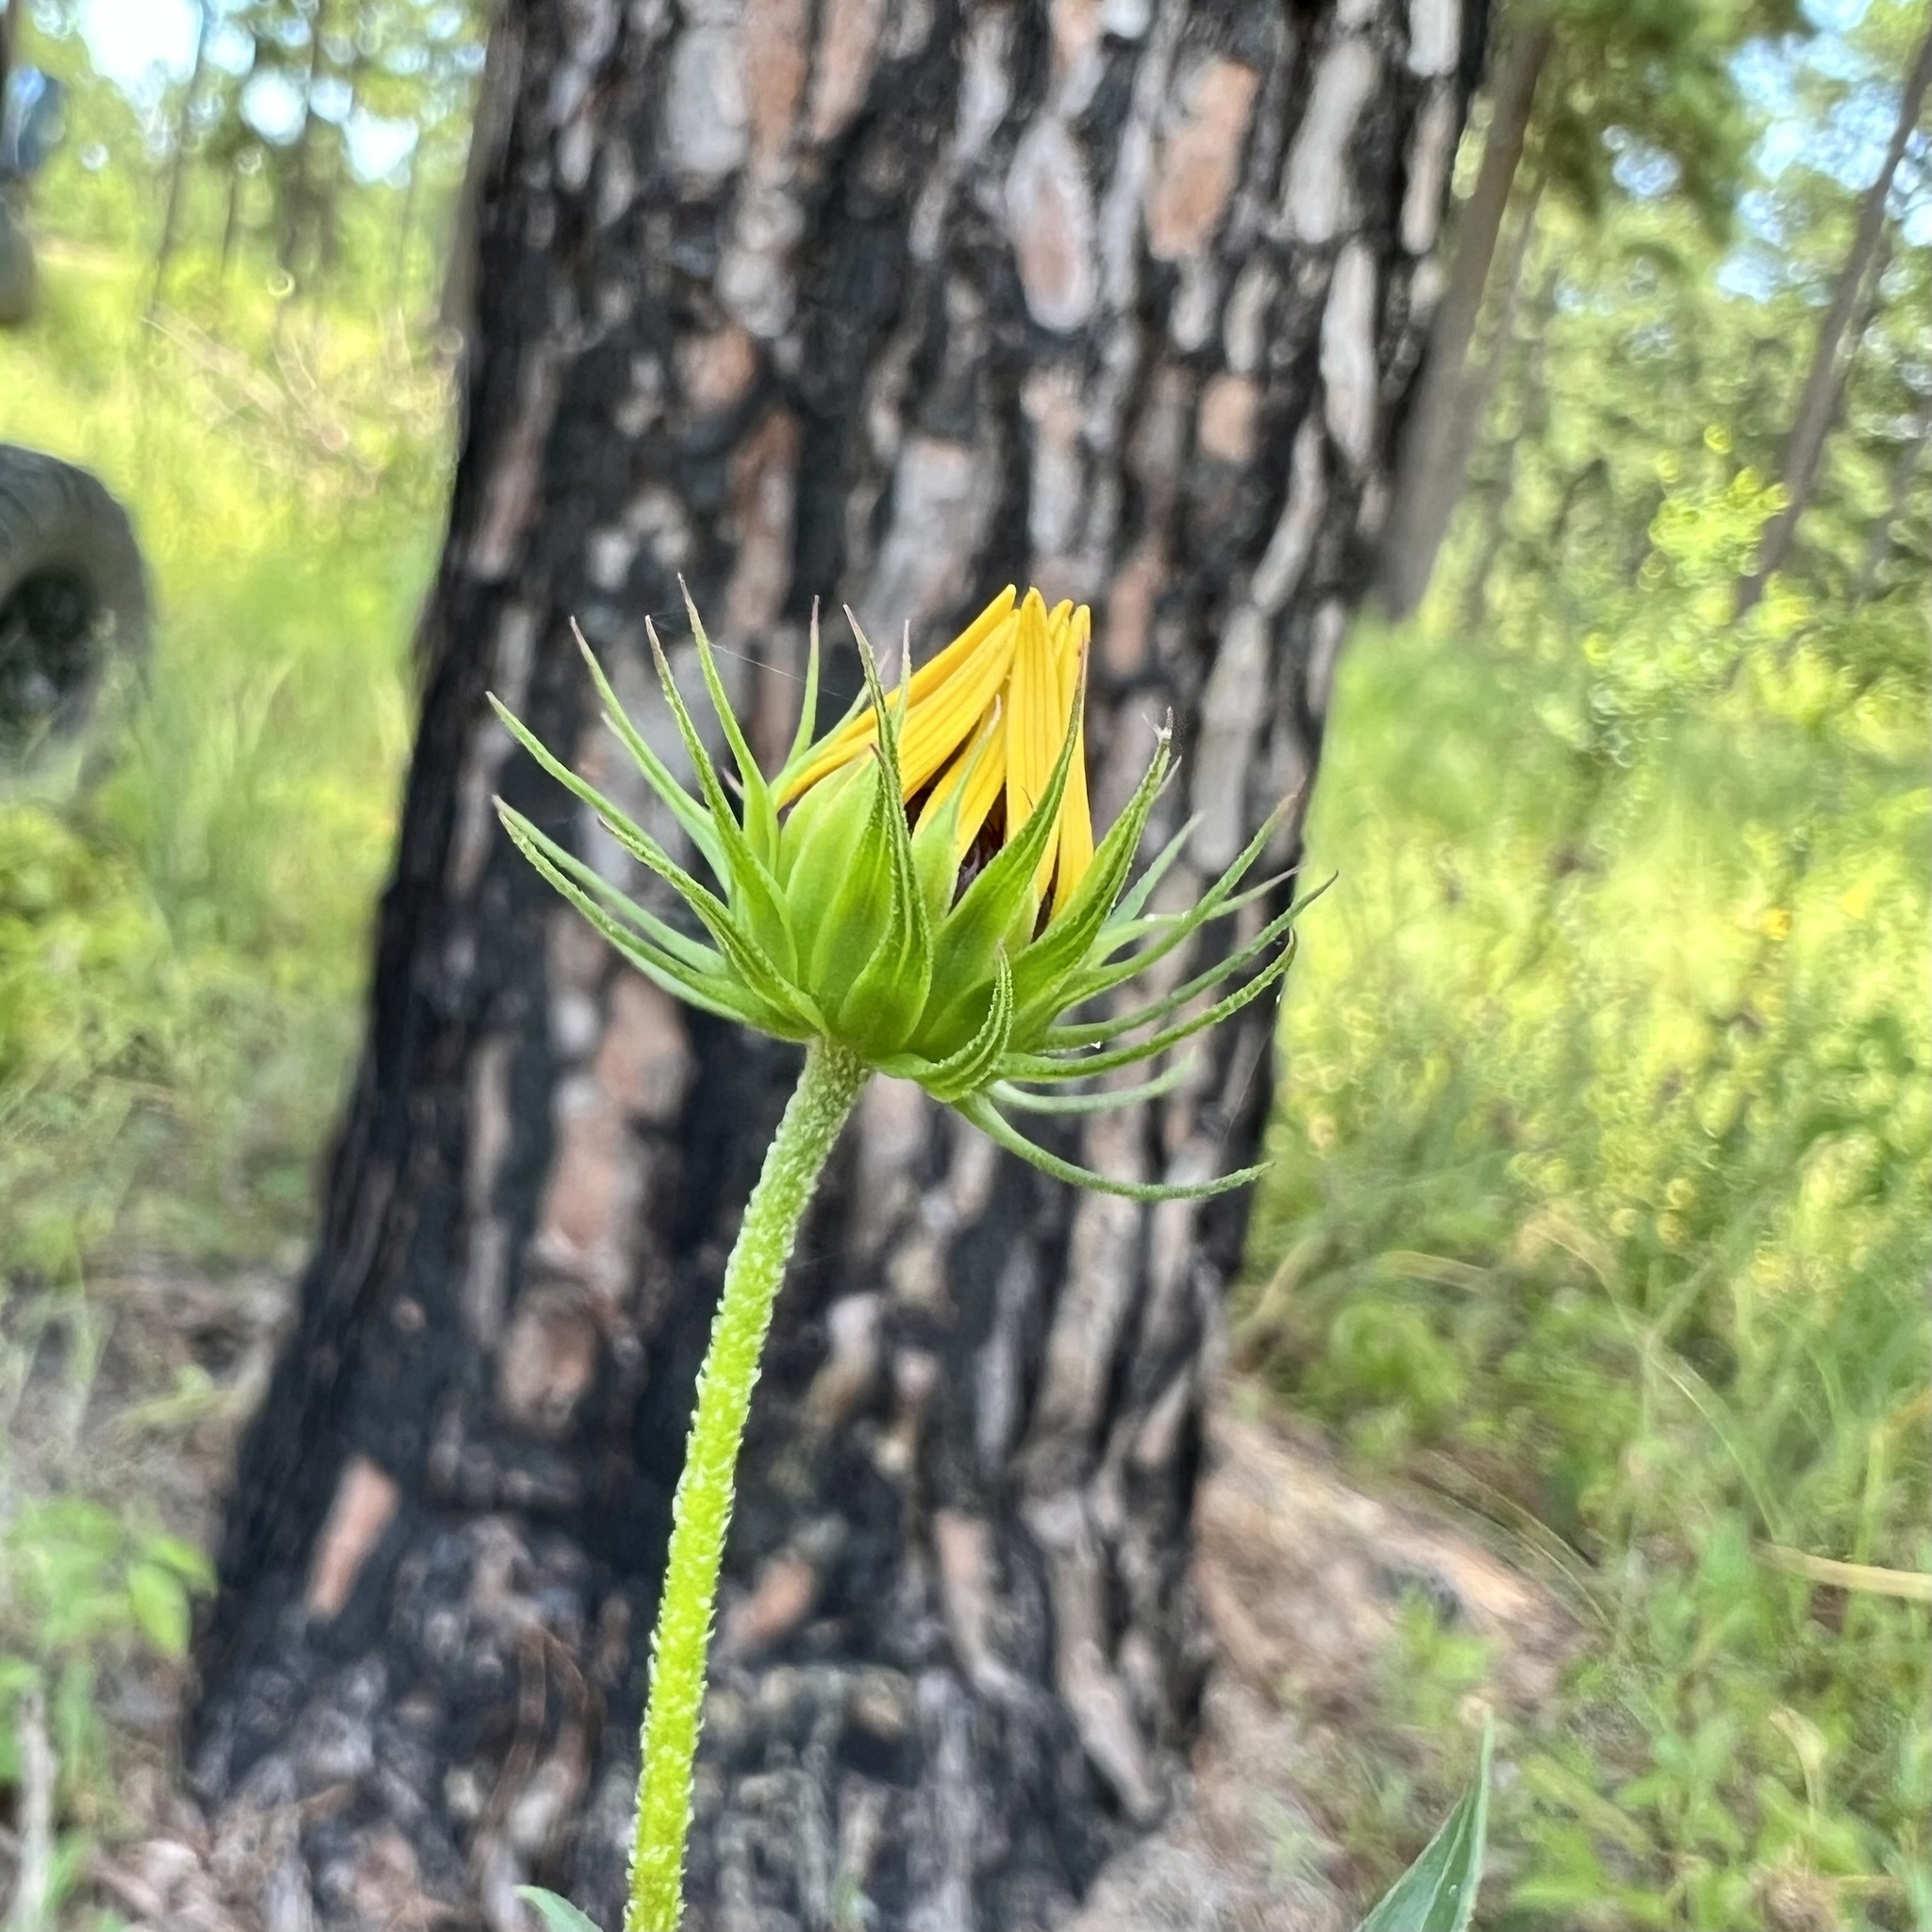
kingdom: Plantae
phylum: Tracheophyta
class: Magnoliopsida
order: Asterales
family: Asteraceae
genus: Helianthus
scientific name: Helianthus debilis
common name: Weak sunflower
